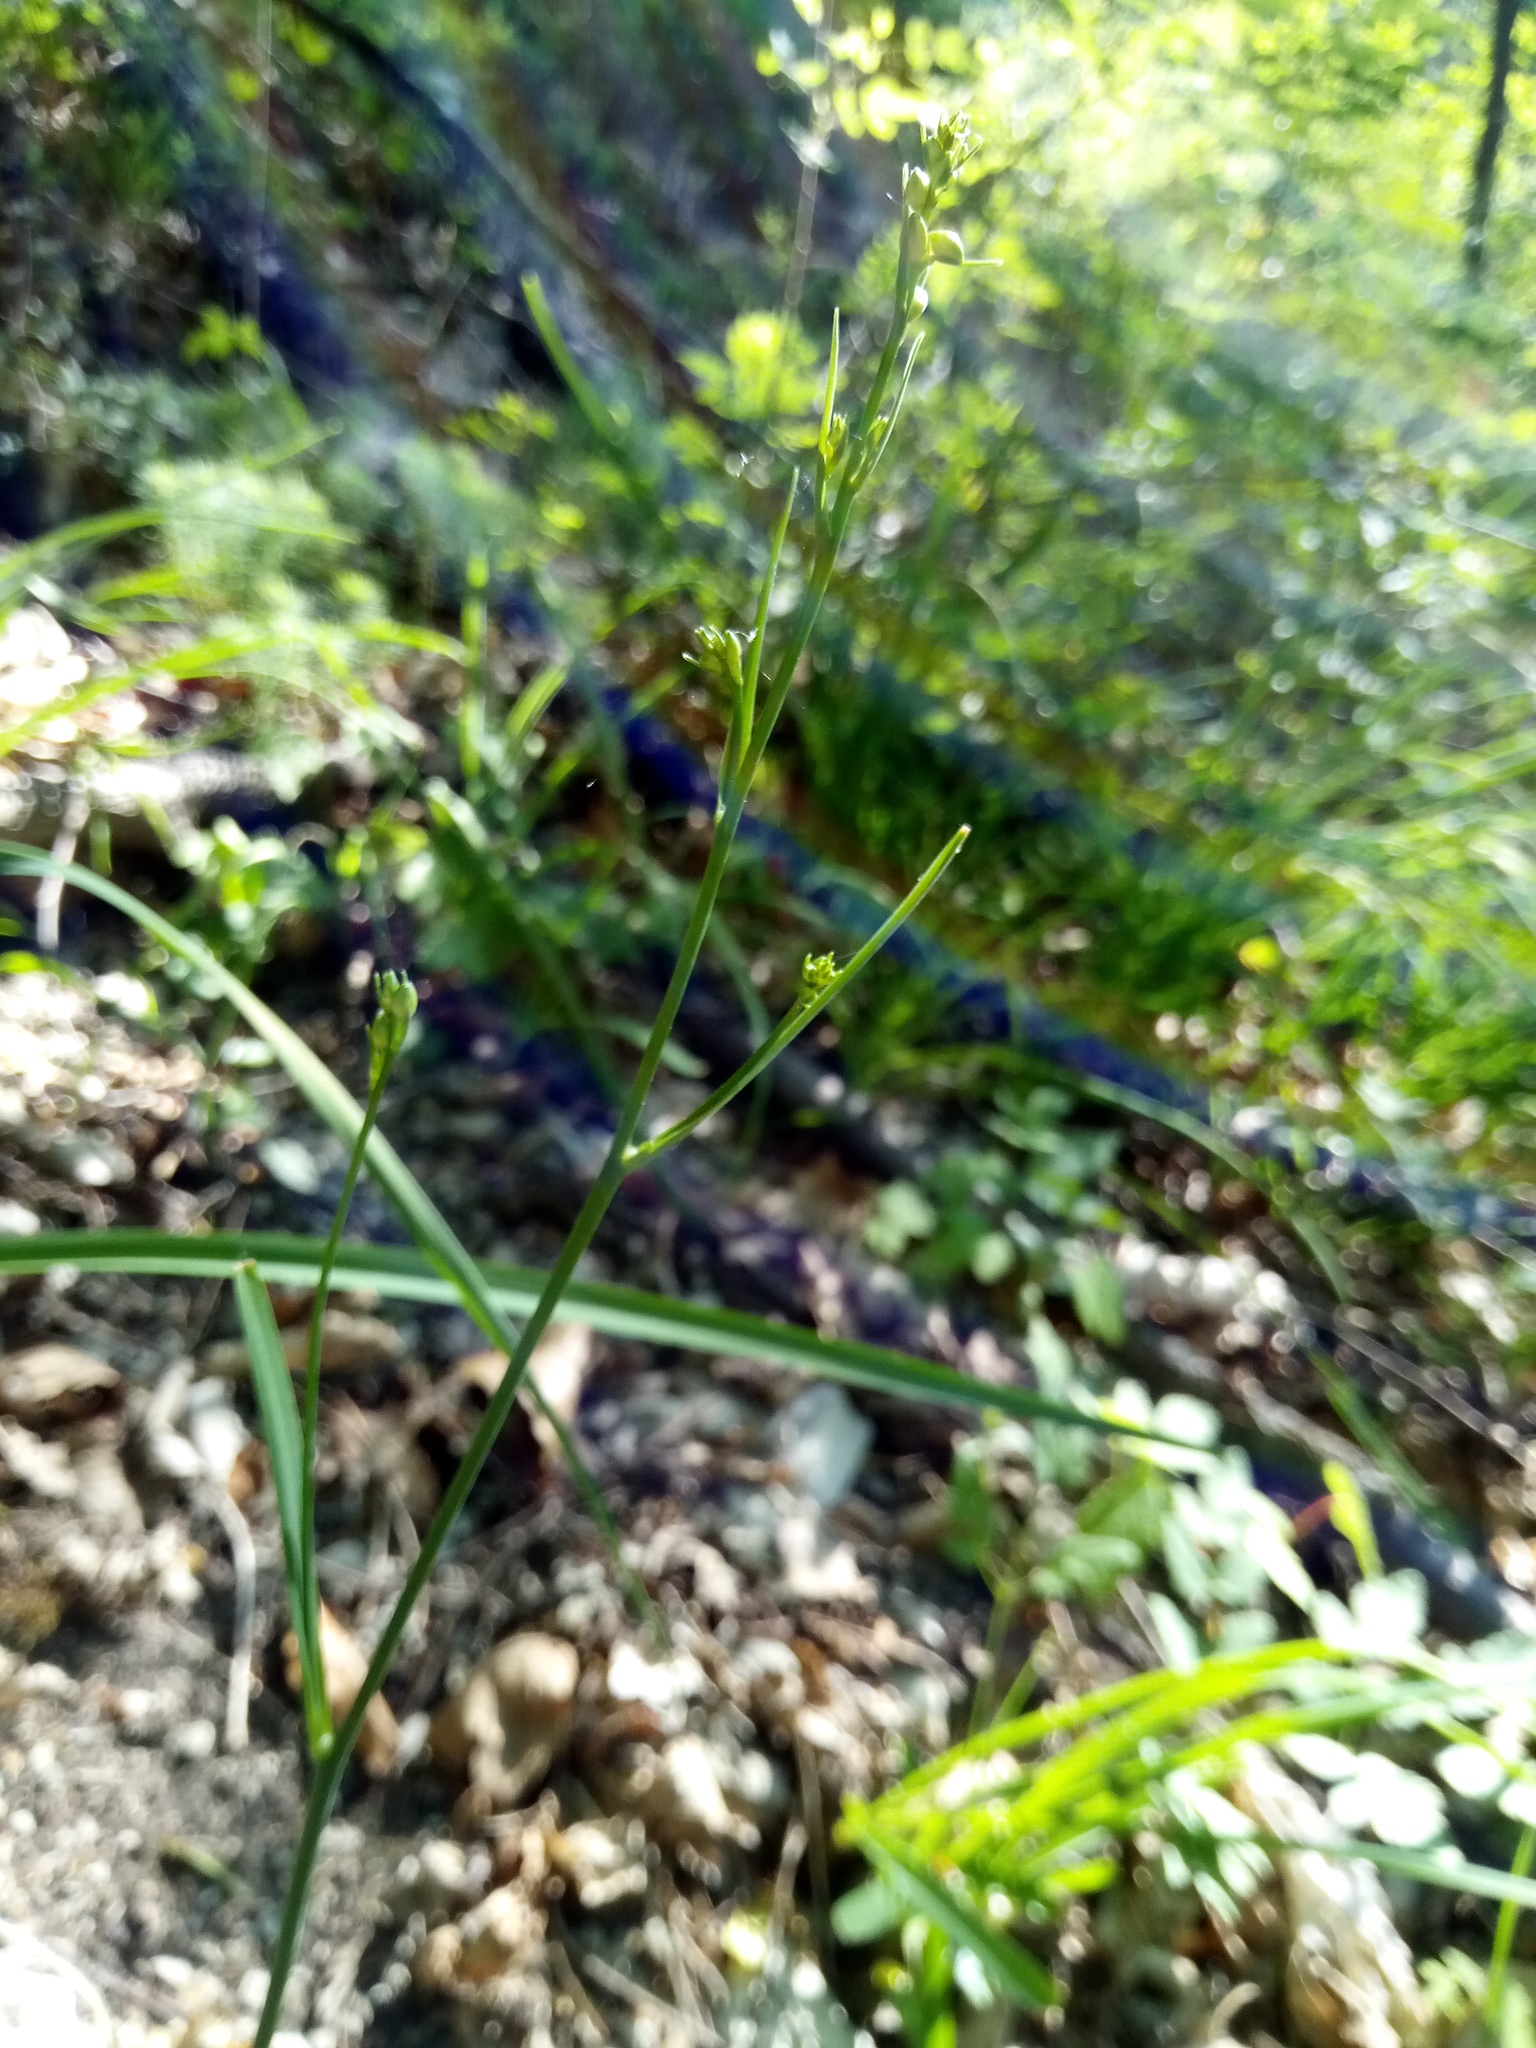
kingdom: Plantae
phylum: Tracheophyta
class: Liliopsida
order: Asparagales
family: Asparagaceae
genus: Anthericum
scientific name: Anthericum ramosum
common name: Branched st. bernard's-lily
